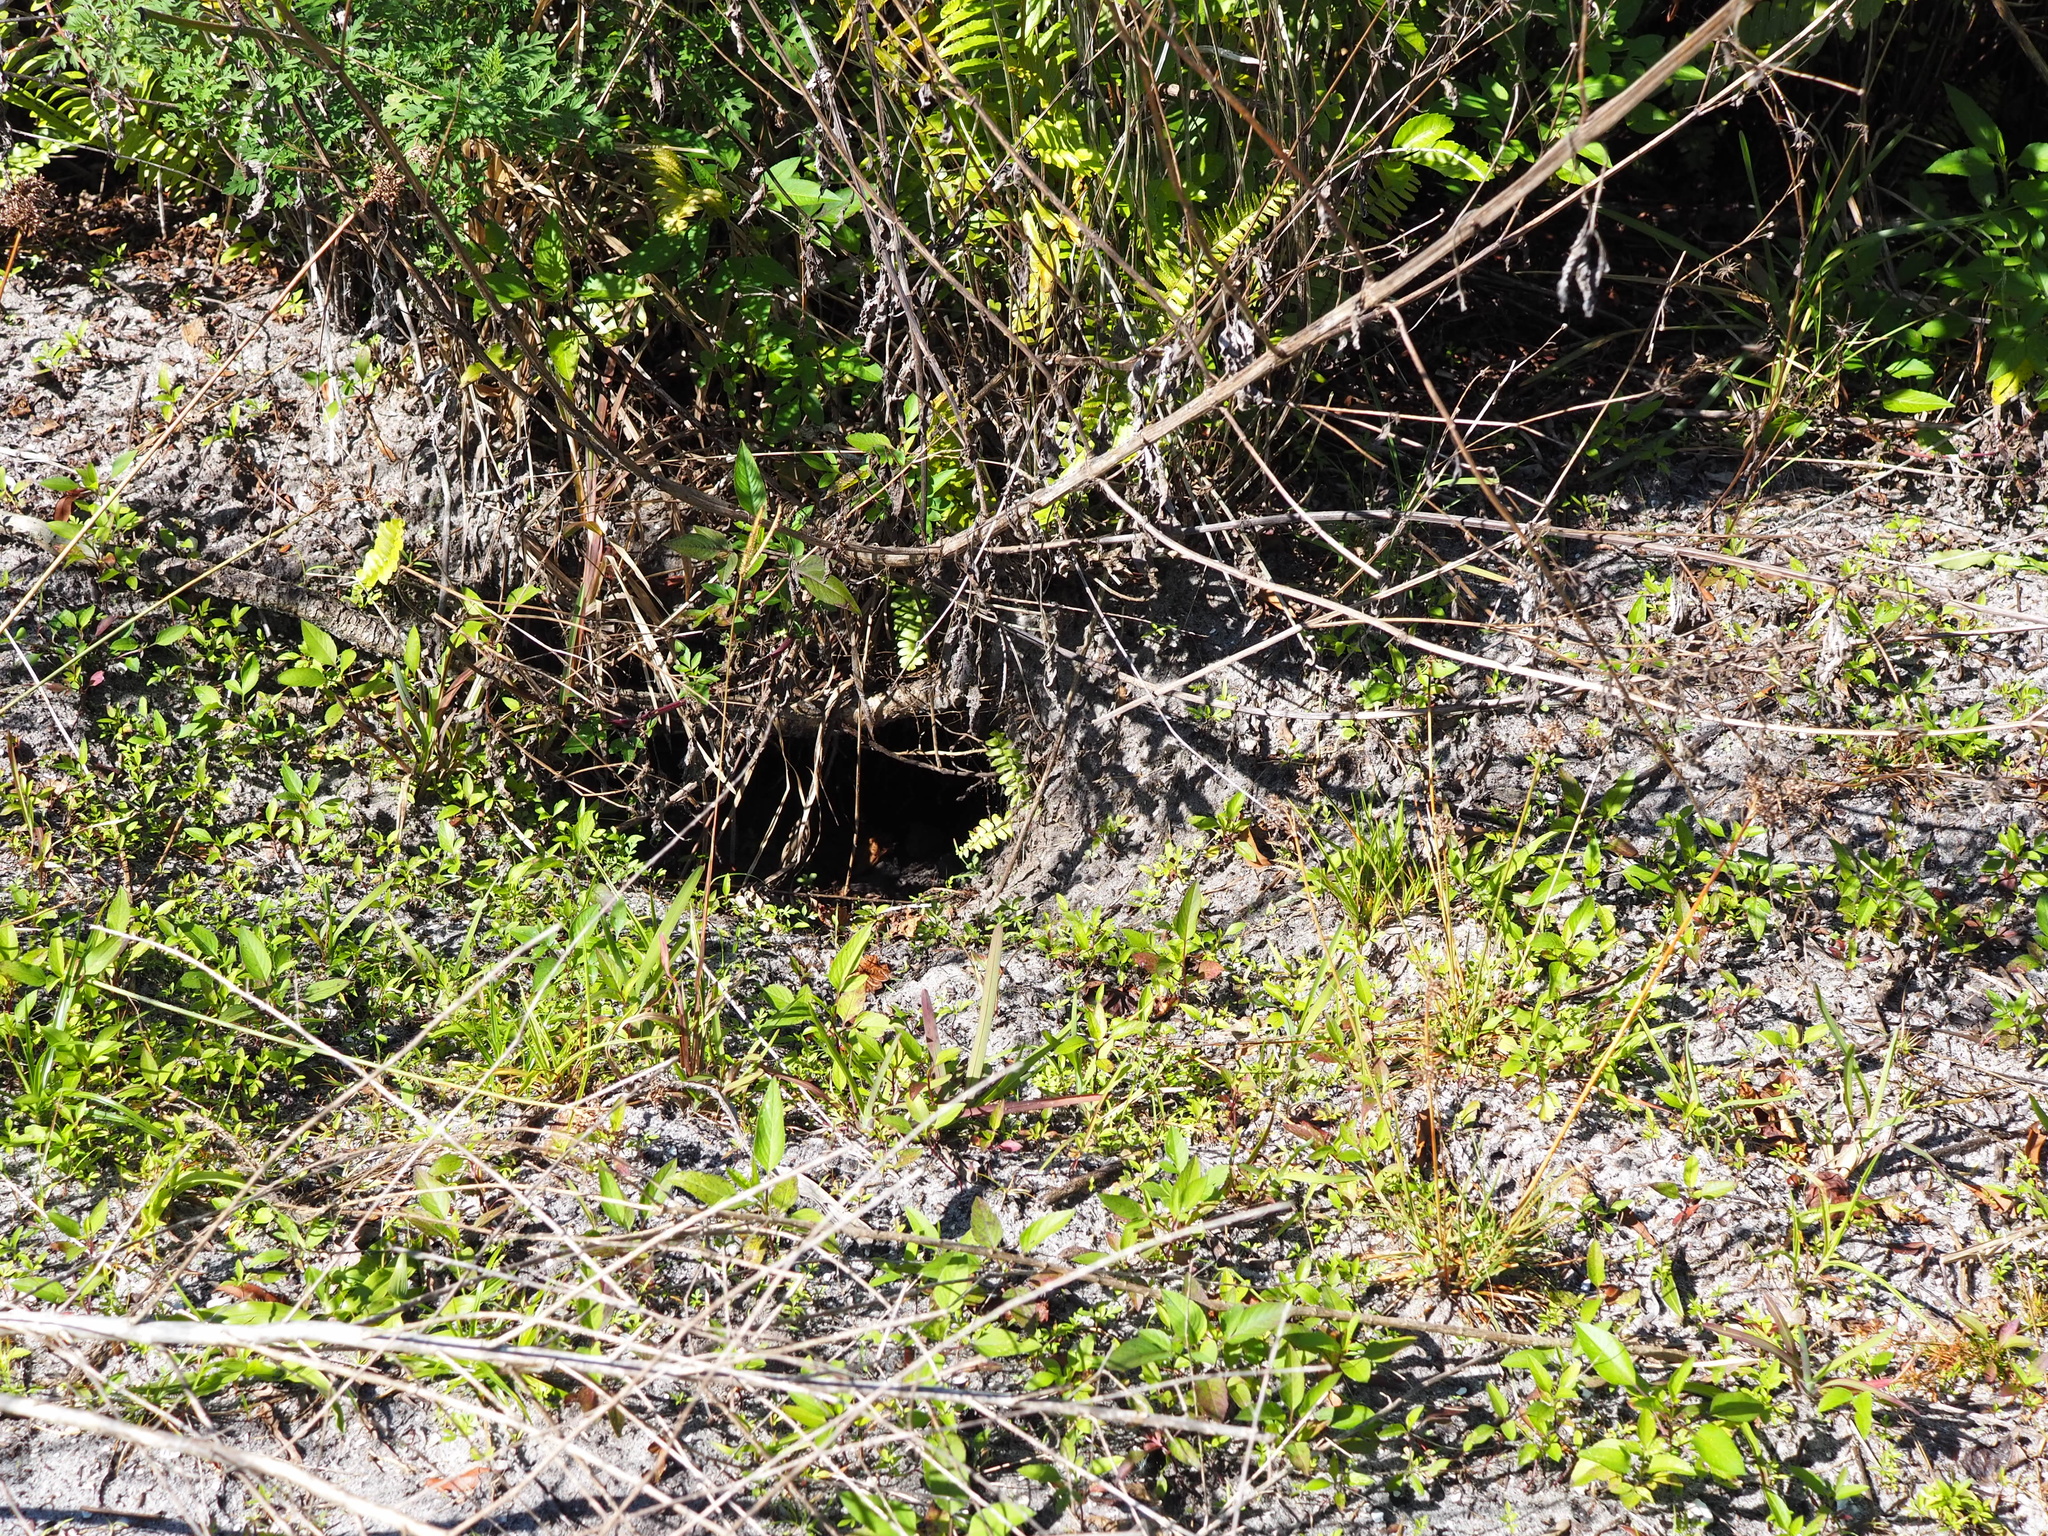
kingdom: Animalia
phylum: Chordata
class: Testudines
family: Testudinidae
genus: Gopherus
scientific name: Gopherus polyphemus
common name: Florida gopher tortoise
